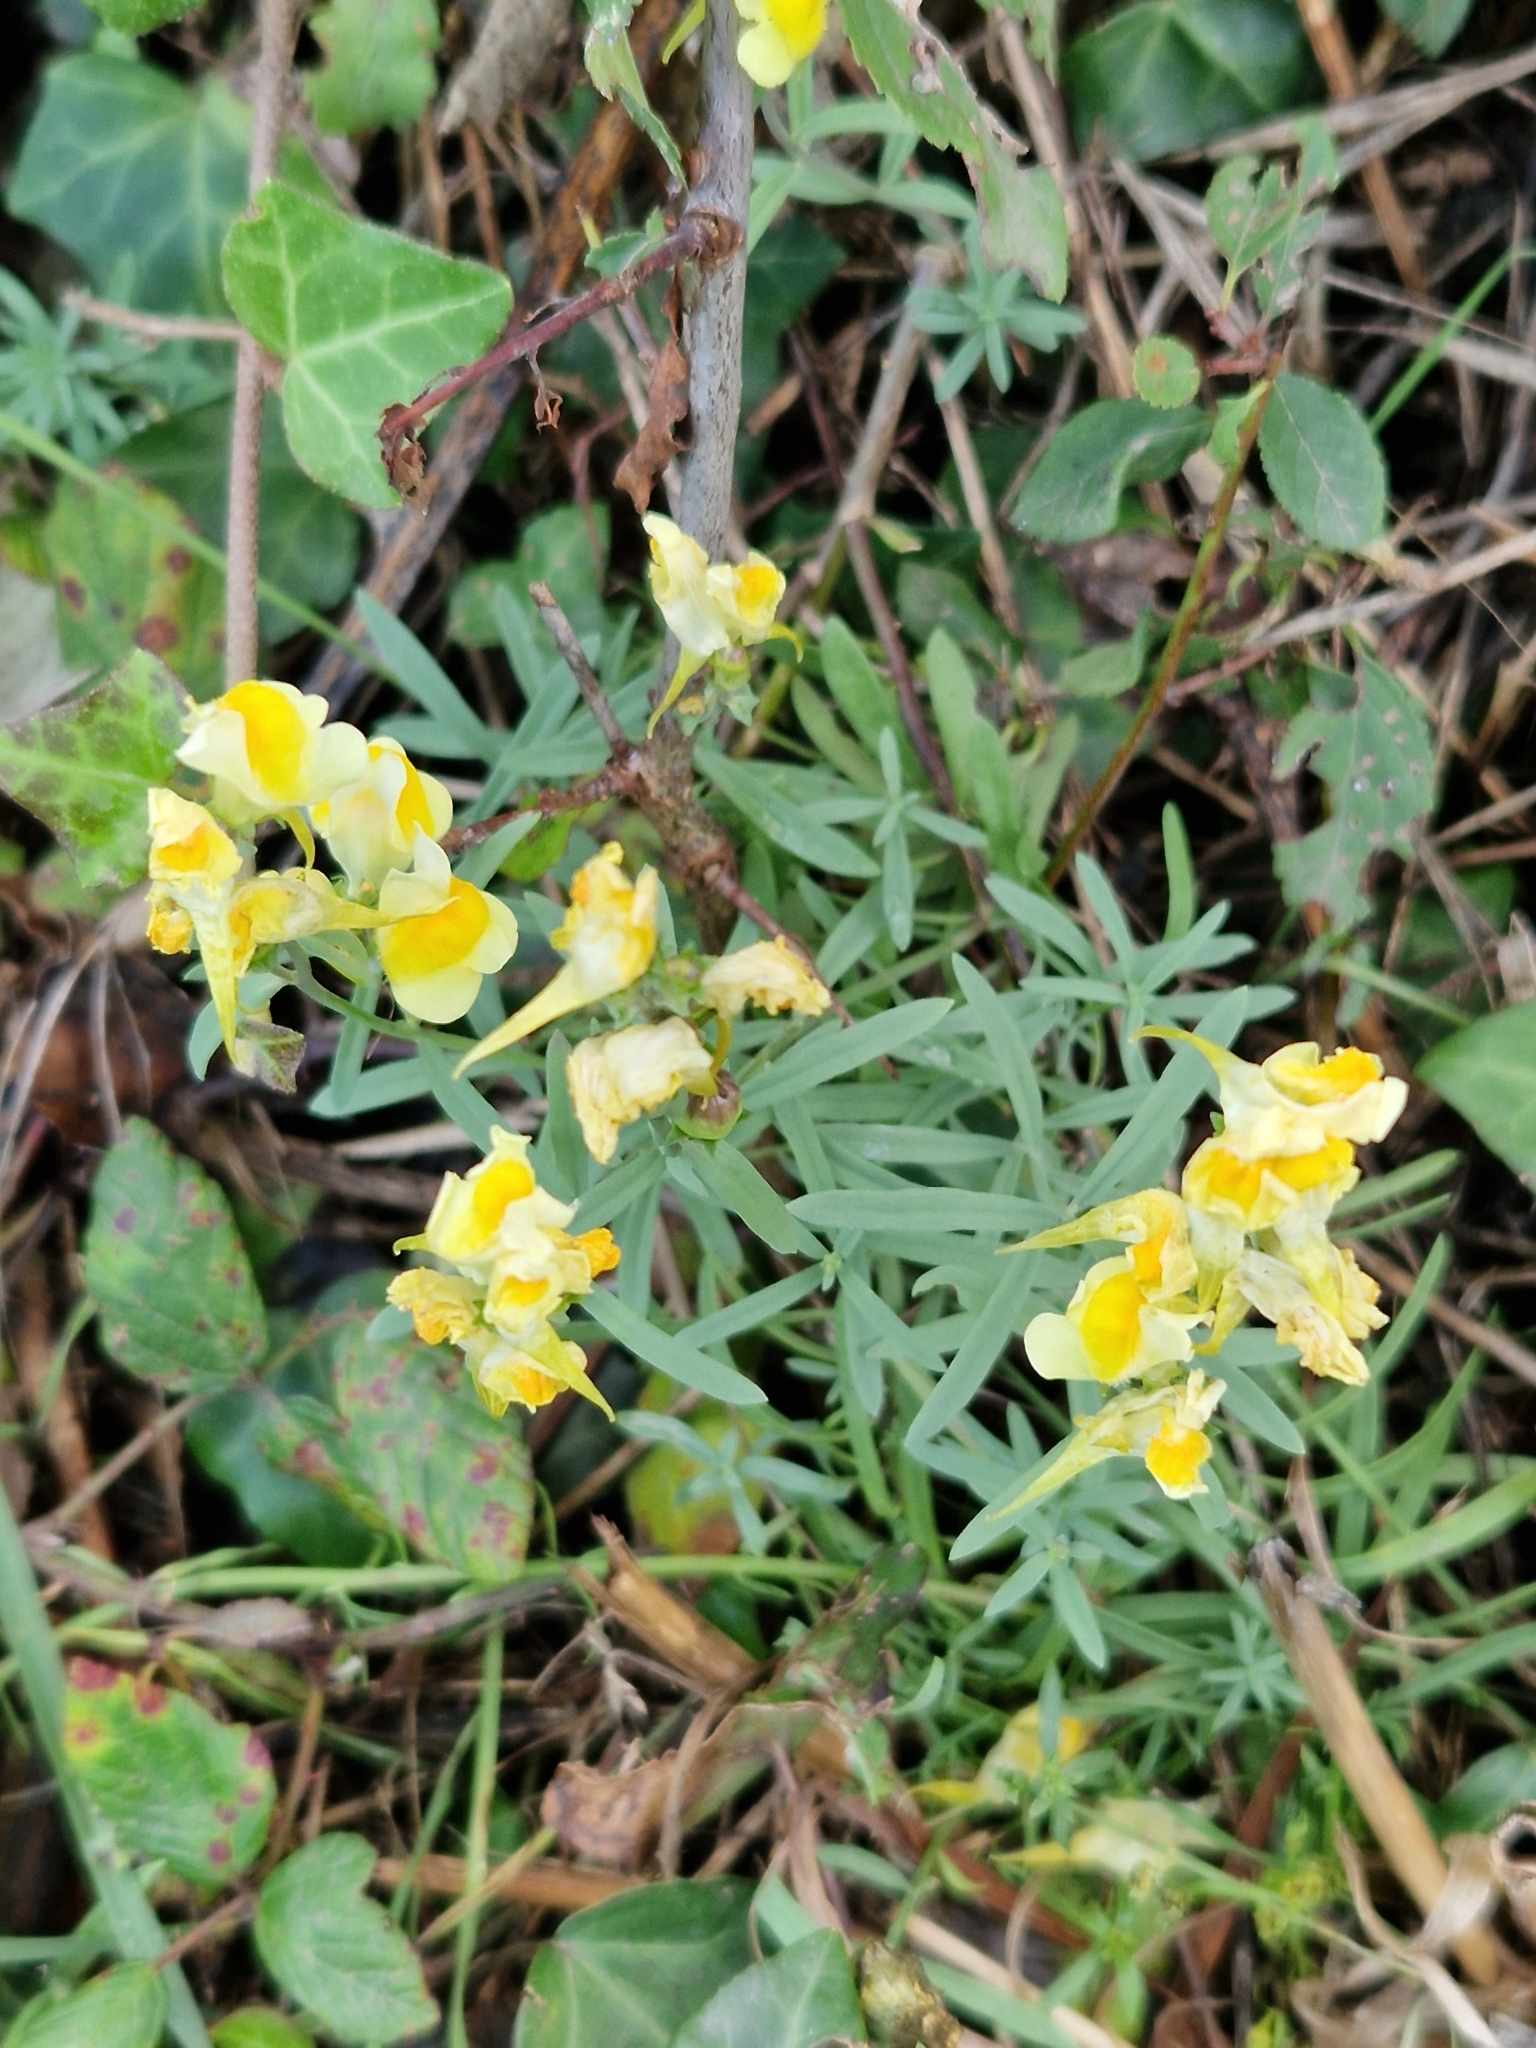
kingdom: Plantae
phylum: Tracheophyta
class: Magnoliopsida
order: Lamiales
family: Plantaginaceae
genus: Linaria
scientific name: Linaria vulgaris
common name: Butter and eggs
